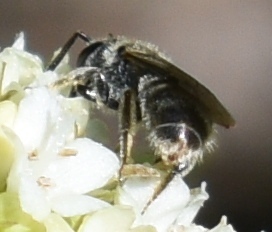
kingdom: Animalia
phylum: Arthropoda
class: Insecta
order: Hymenoptera
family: Halictidae
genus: Lasioglossum
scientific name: Lasioglossum
